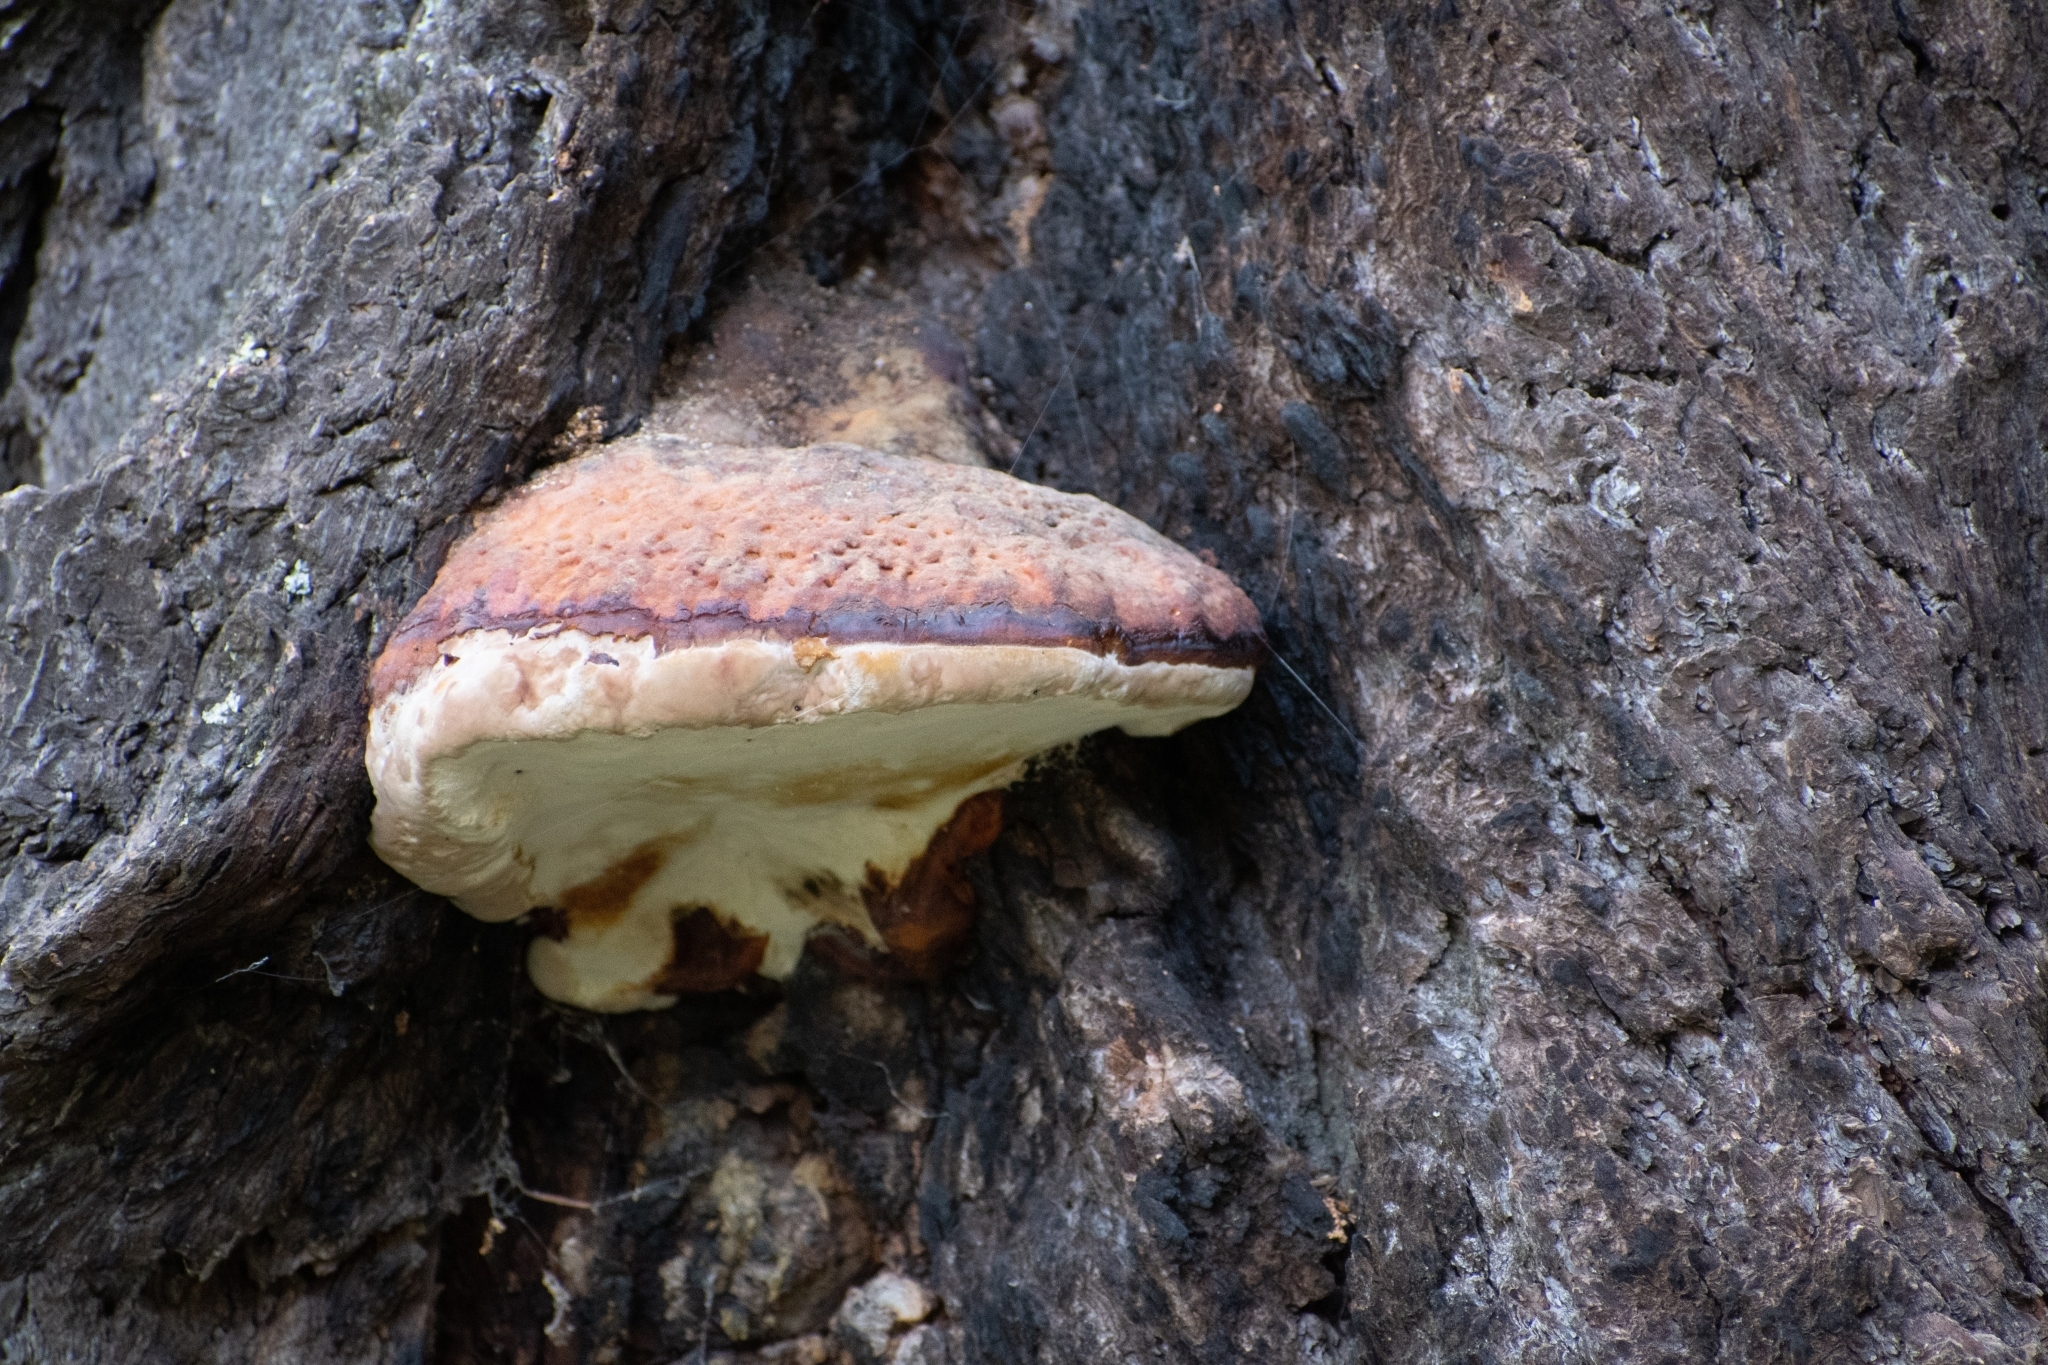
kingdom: Fungi
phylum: Basidiomycota
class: Agaricomycetes
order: Polyporales
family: Fomitopsidaceae
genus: Fomitopsis
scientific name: Fomitopsis schrenkii
